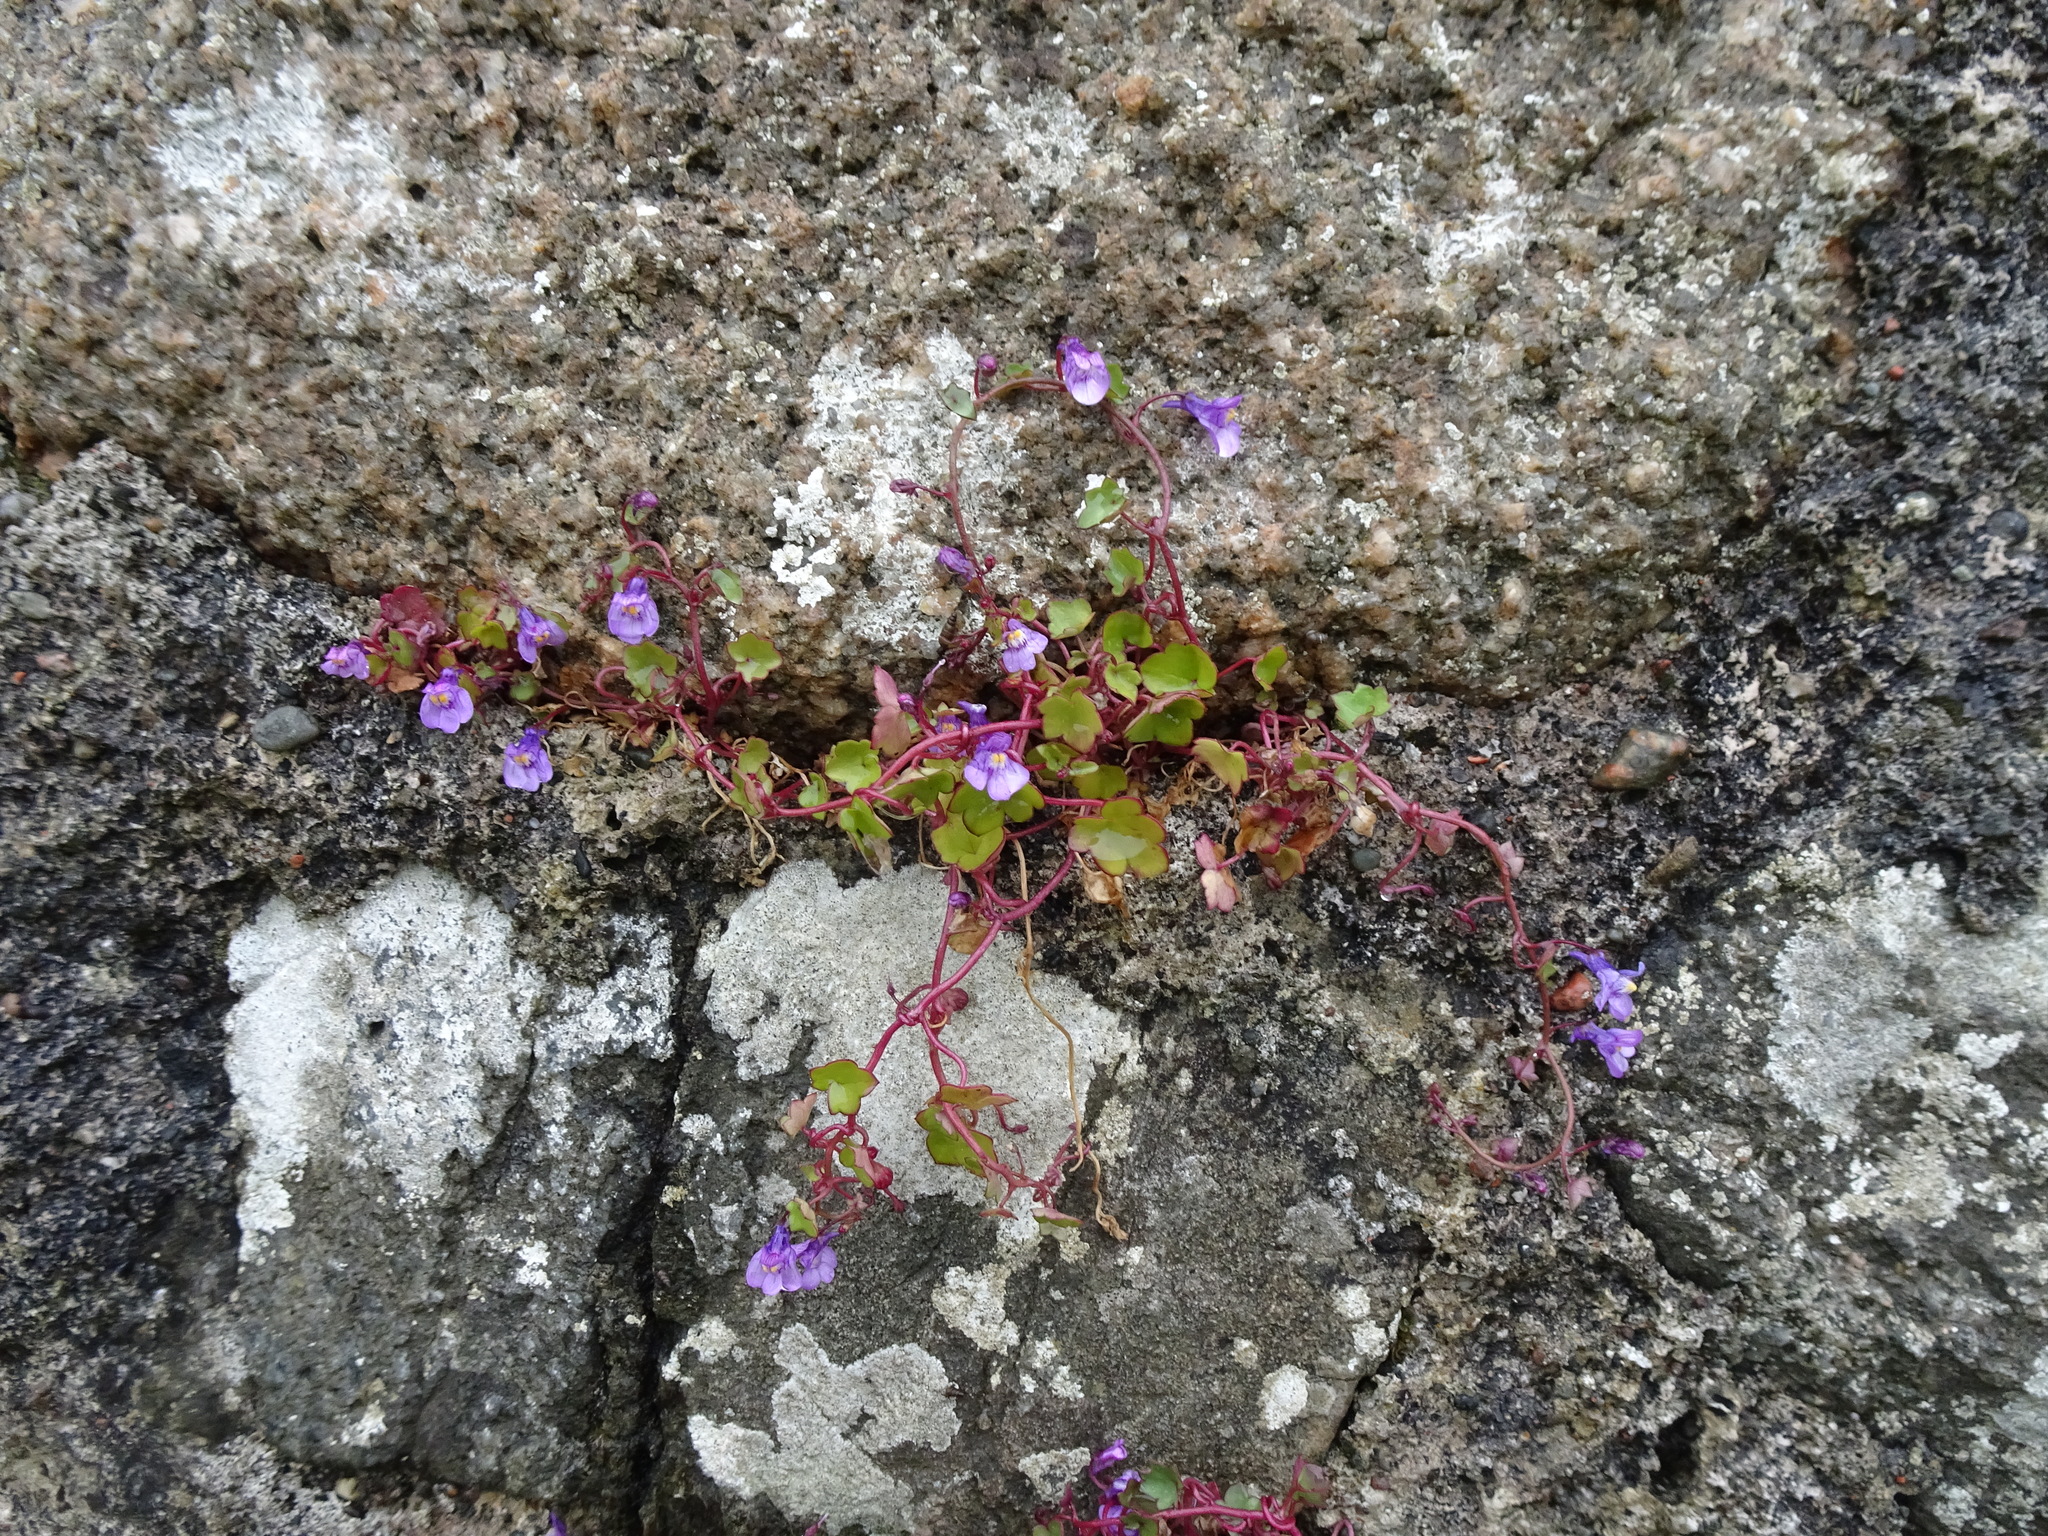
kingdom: Plantae
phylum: Tracheophyta
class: Magnoliopsida
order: Lamiales
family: Plantaginaceae
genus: Cymbalaria
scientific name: Cymbalaria muralis
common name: Ivy-leaved toadflax
